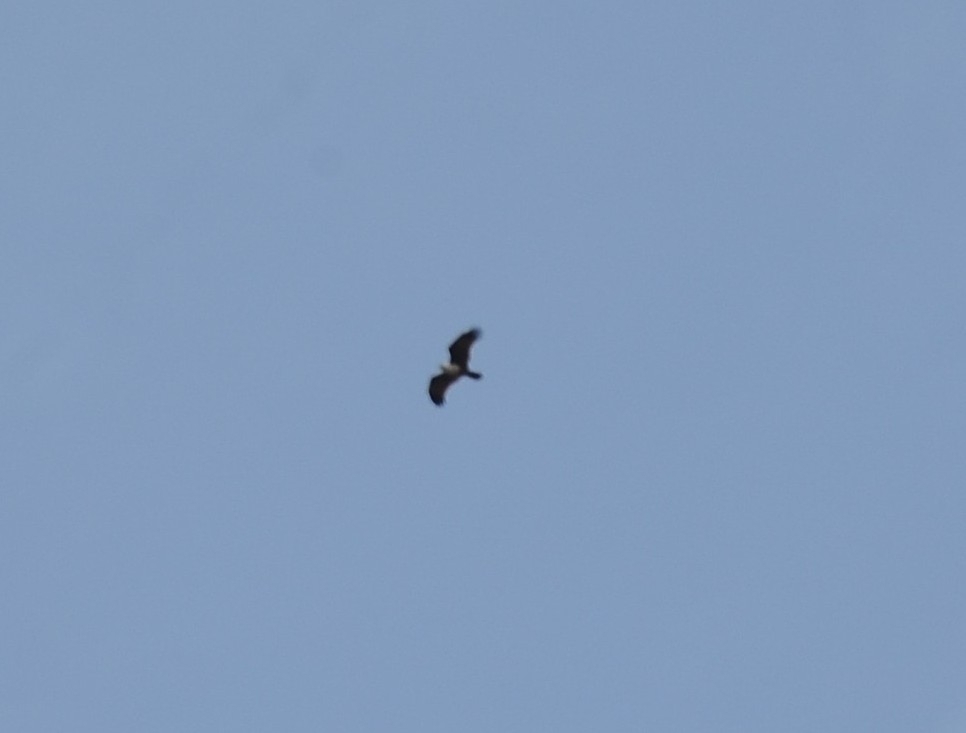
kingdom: Animalia
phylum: Chordata
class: Aves
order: Accipitriformes
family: Accipitridae
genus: Haliastur
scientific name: Haliastur indus
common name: Brahminy kite
